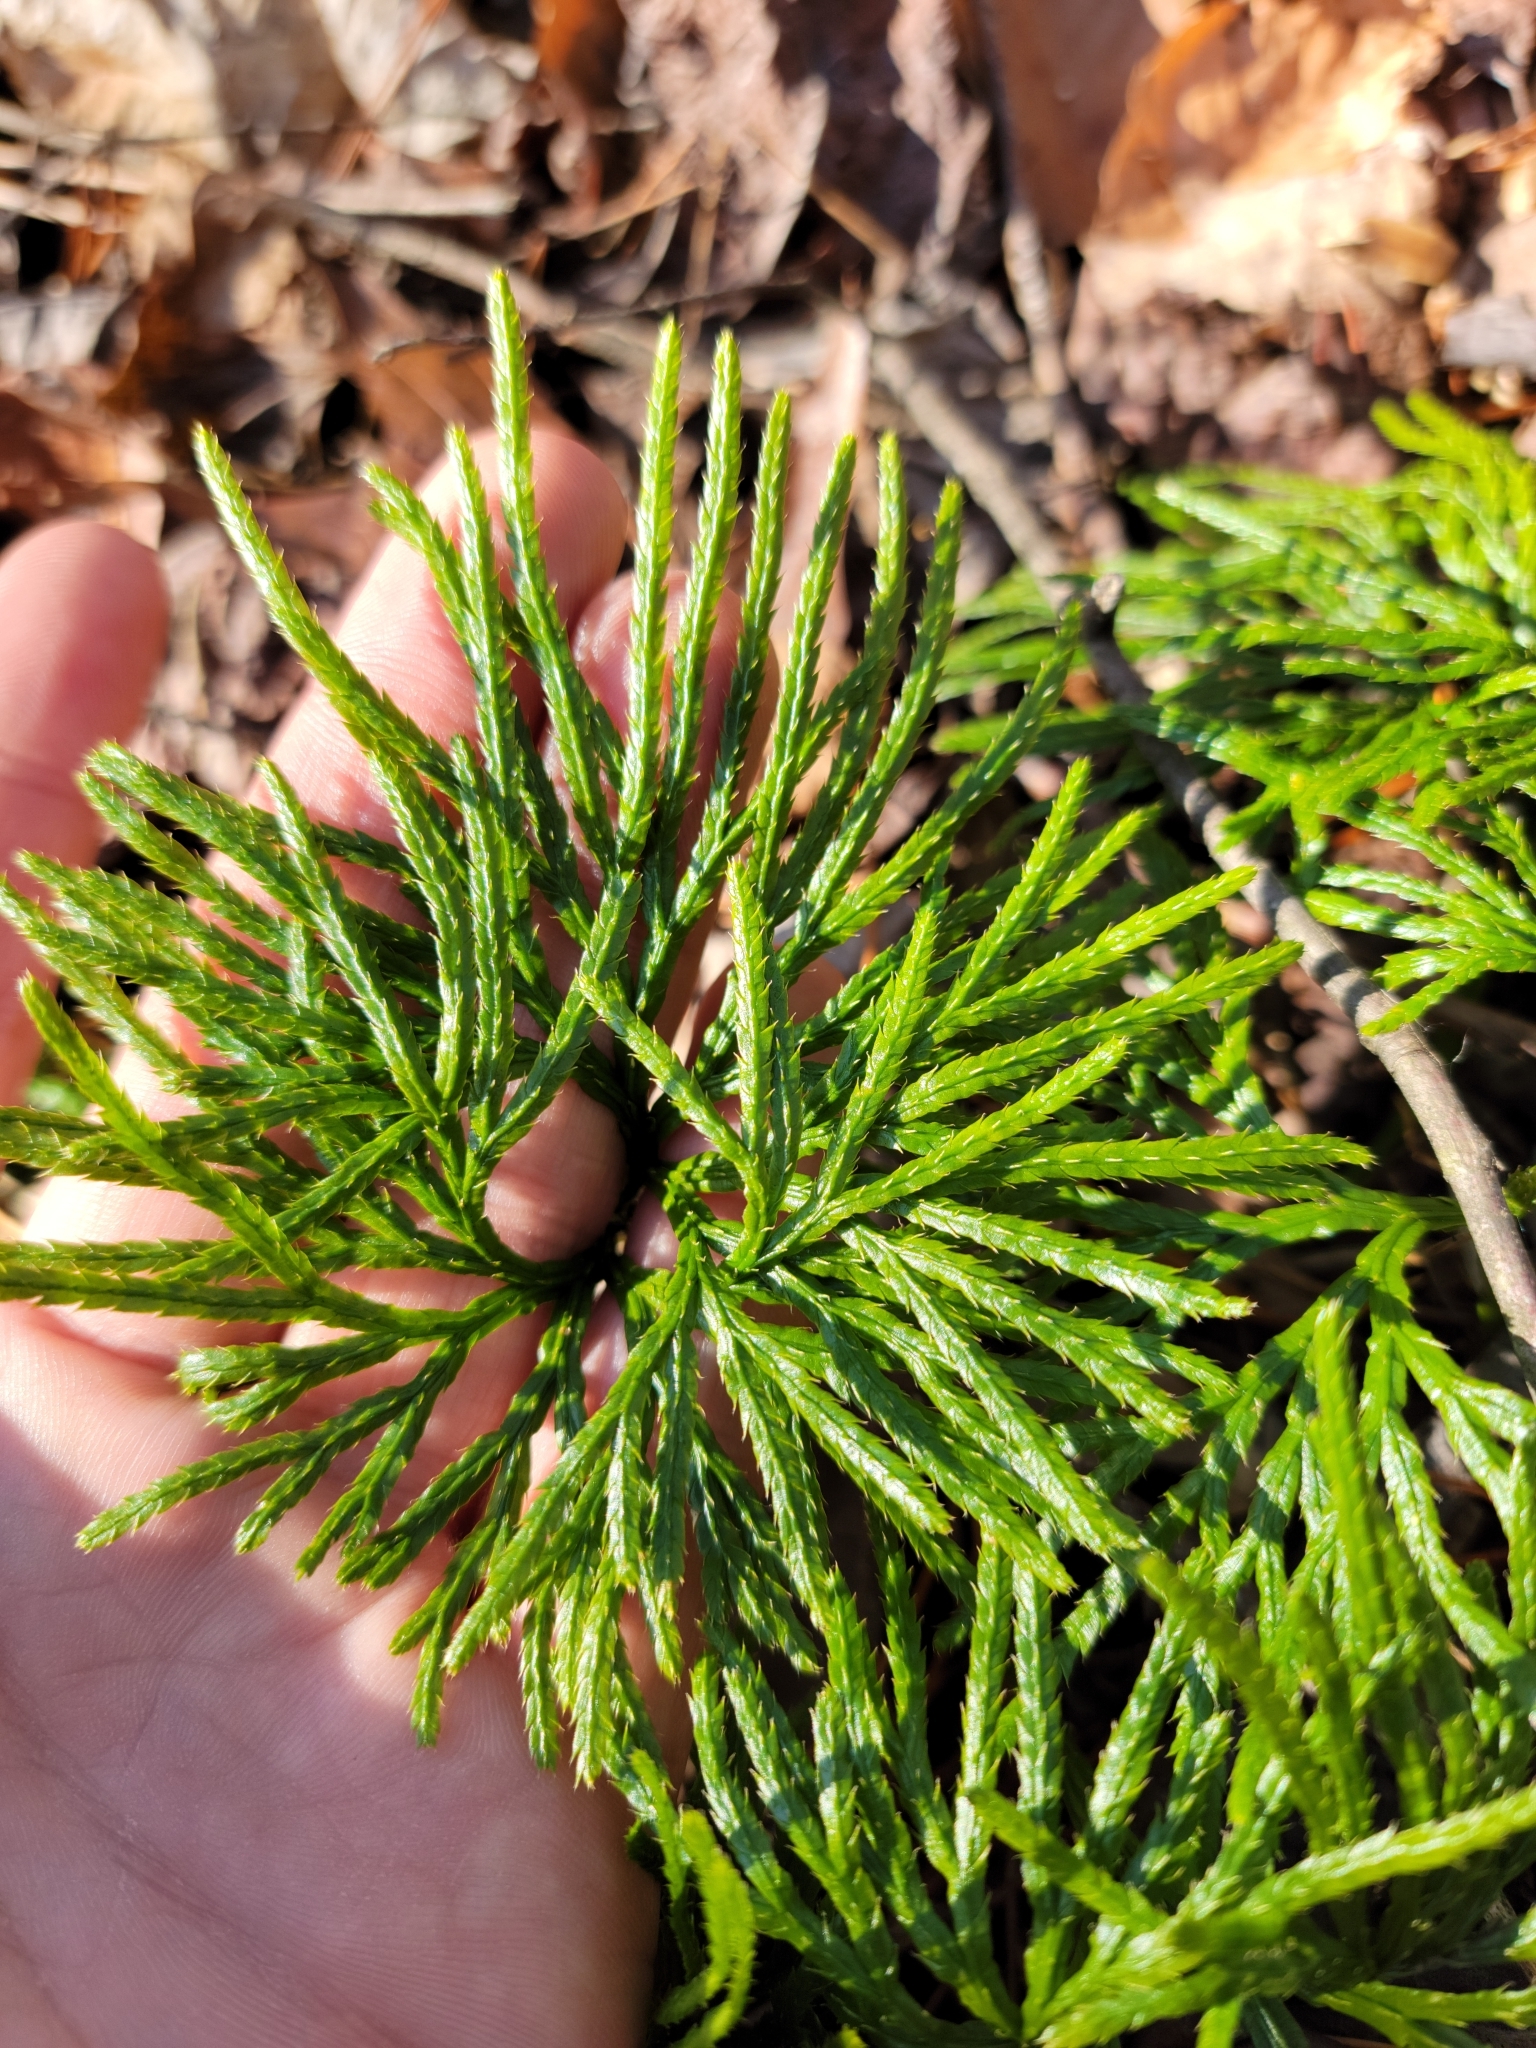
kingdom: Plantae
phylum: Tracheophyta
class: Lycopodiopsida
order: Lycopodiales
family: Lycopodiaceae
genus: Diphasiastrum
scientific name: Diphasiastrum digitatum
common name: Southern running-pine
